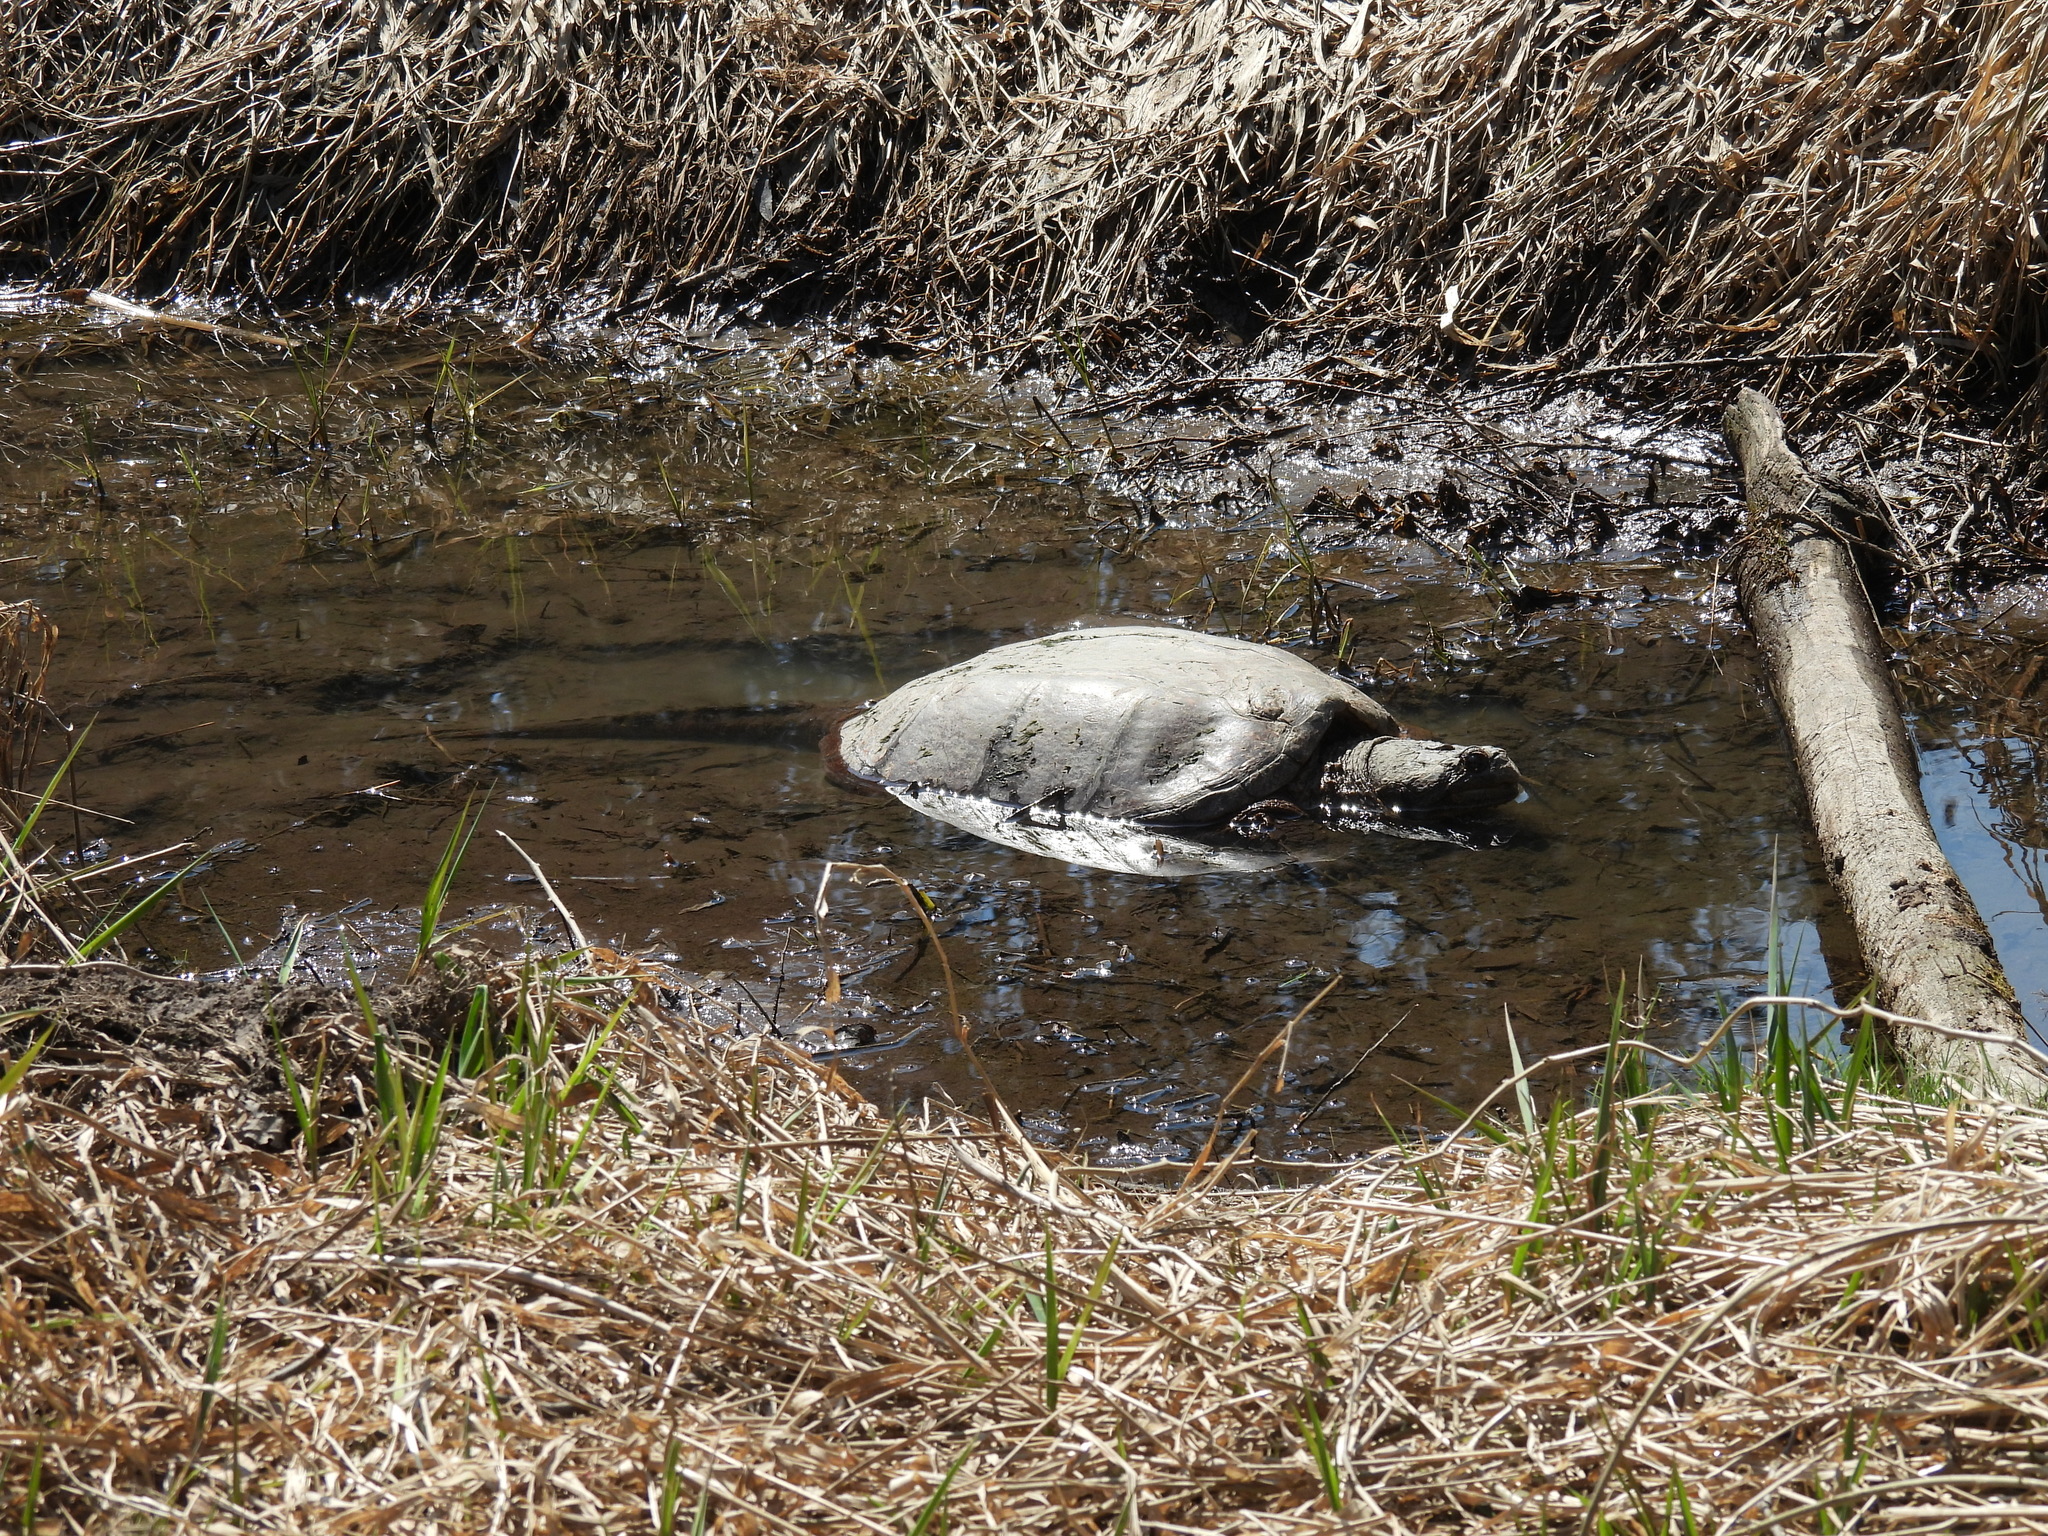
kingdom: Animalia
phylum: Chordata
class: Testudines
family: Chelydridae
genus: Chelydra
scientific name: Chelydra serpentina
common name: Common snapping turtle
